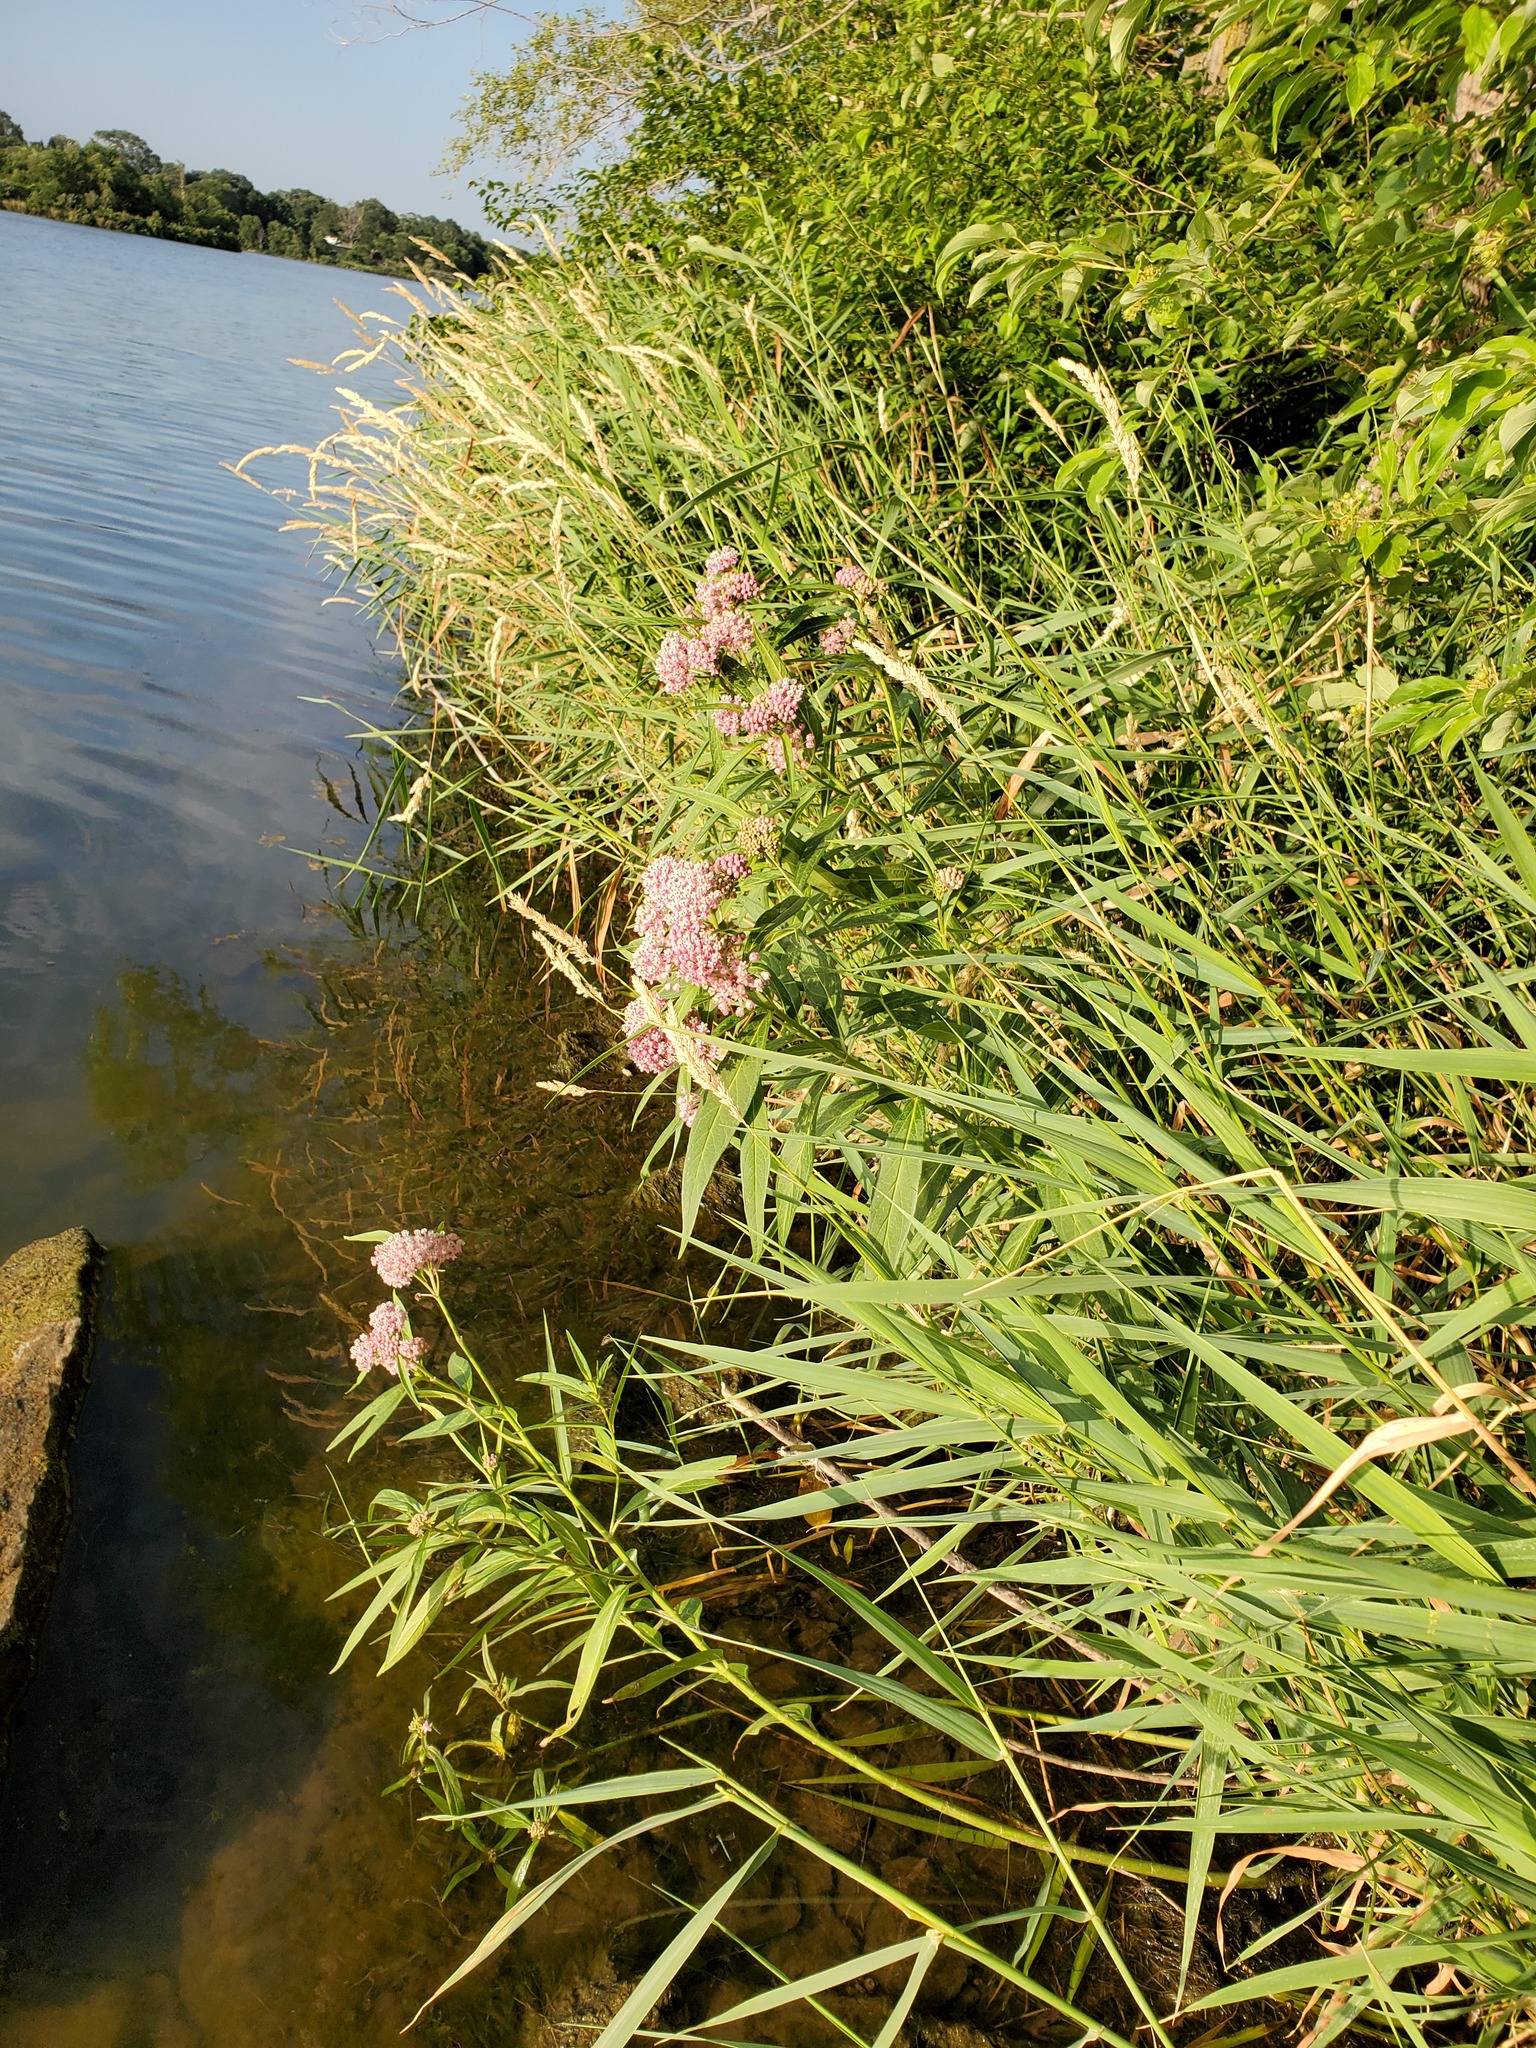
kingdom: Plantae
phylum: Tracheophyta
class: Magnoliopsida
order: Gentianales
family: Apocynaceae
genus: Asclepias
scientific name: Asclepias incarnata
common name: Swamp milkweed
